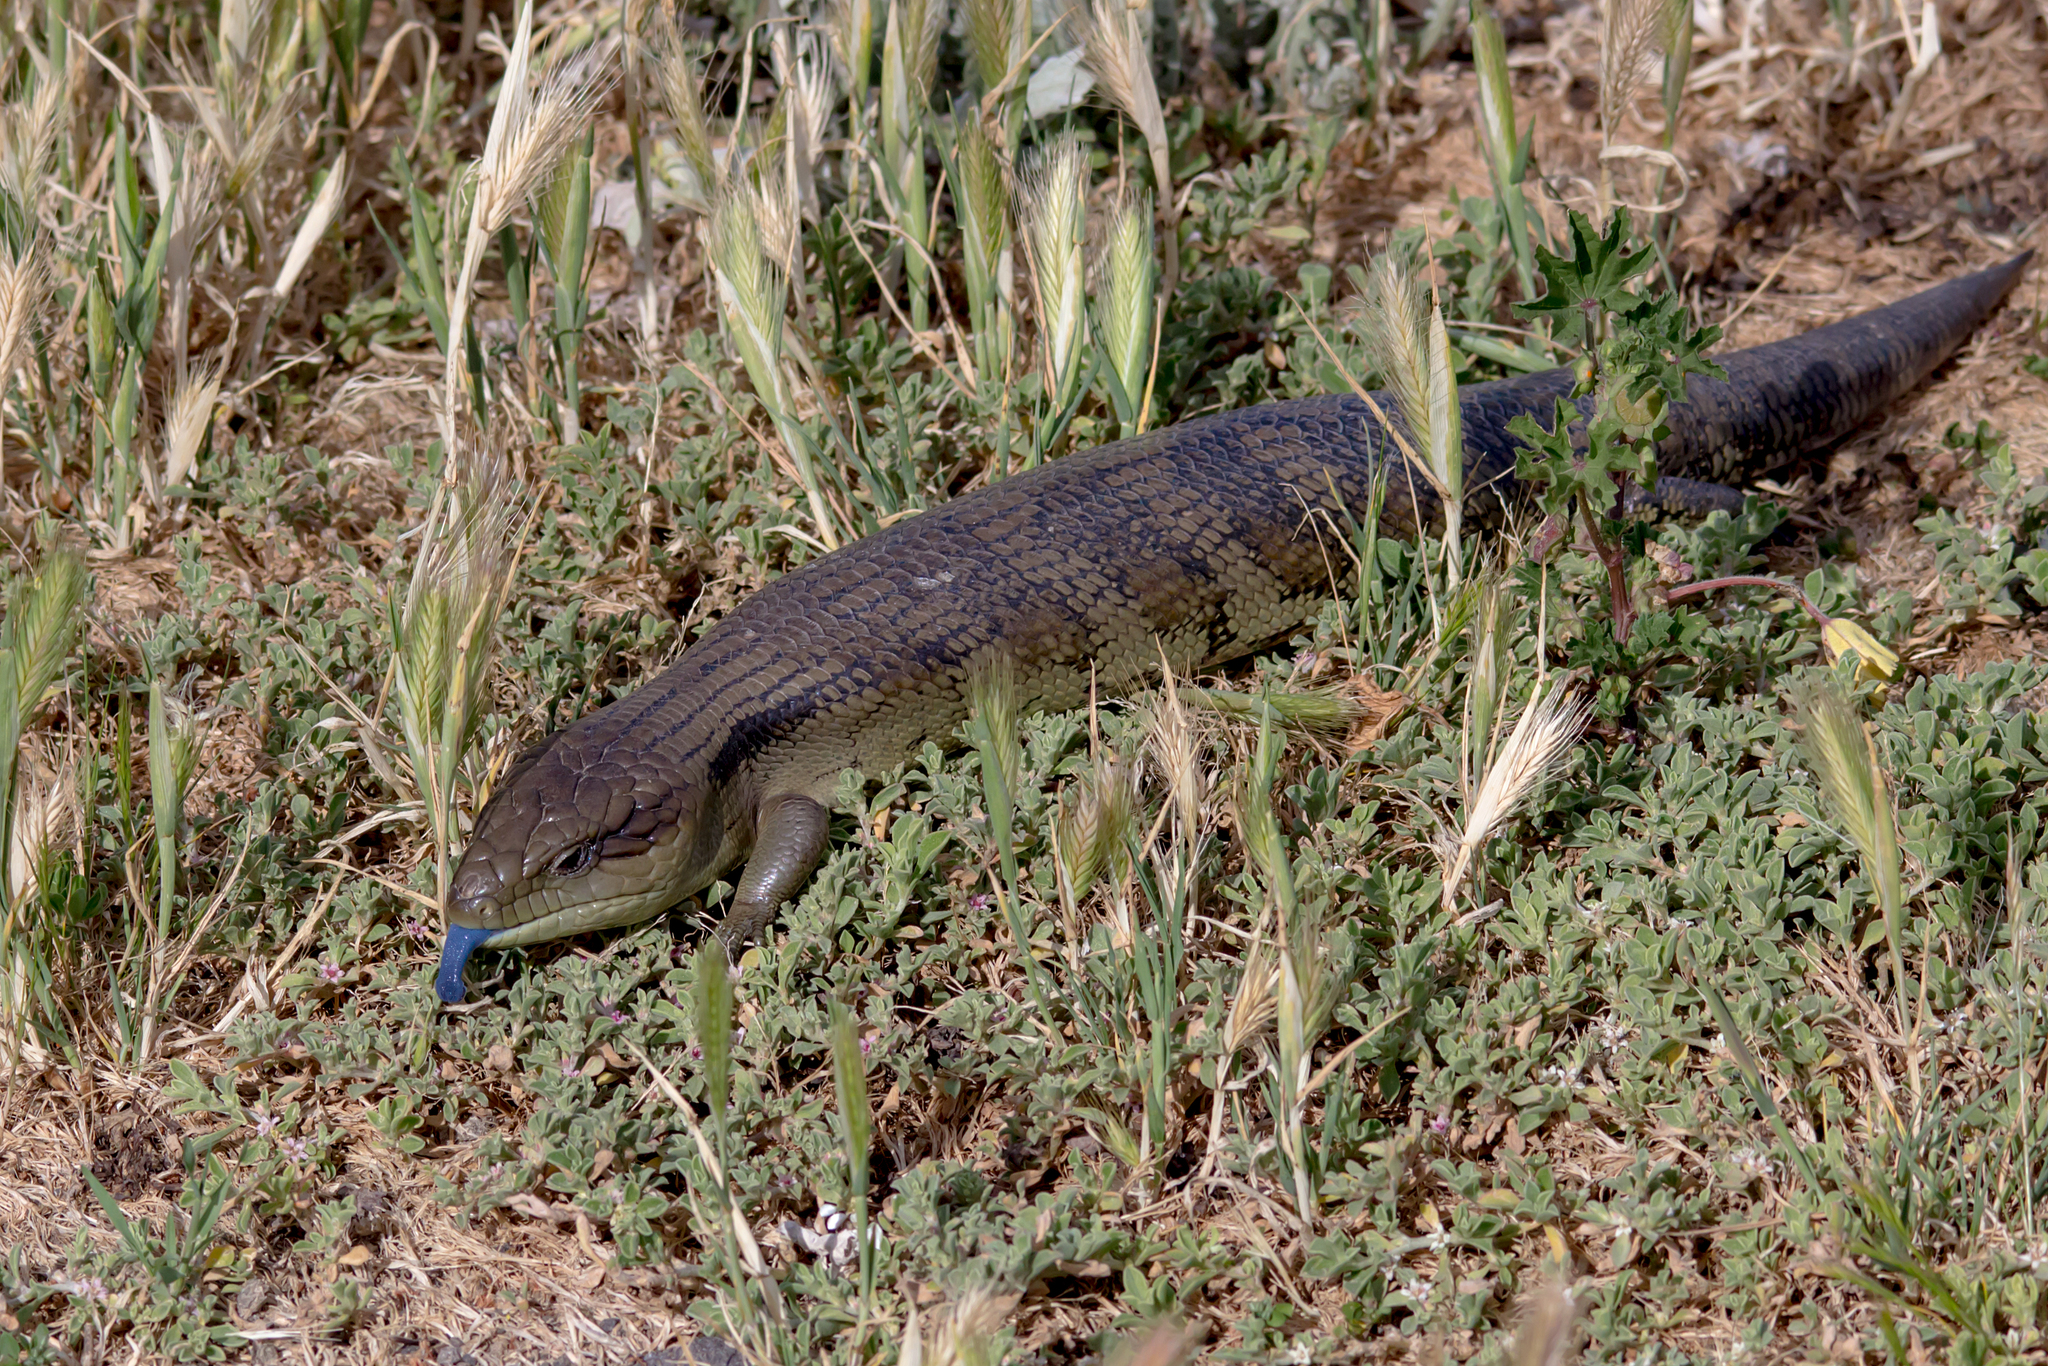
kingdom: Animalia
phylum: Chordata
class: Squamata
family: Scincidae
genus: Tiliqua
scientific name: Tiliqua scincoides
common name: Common bluetongue
